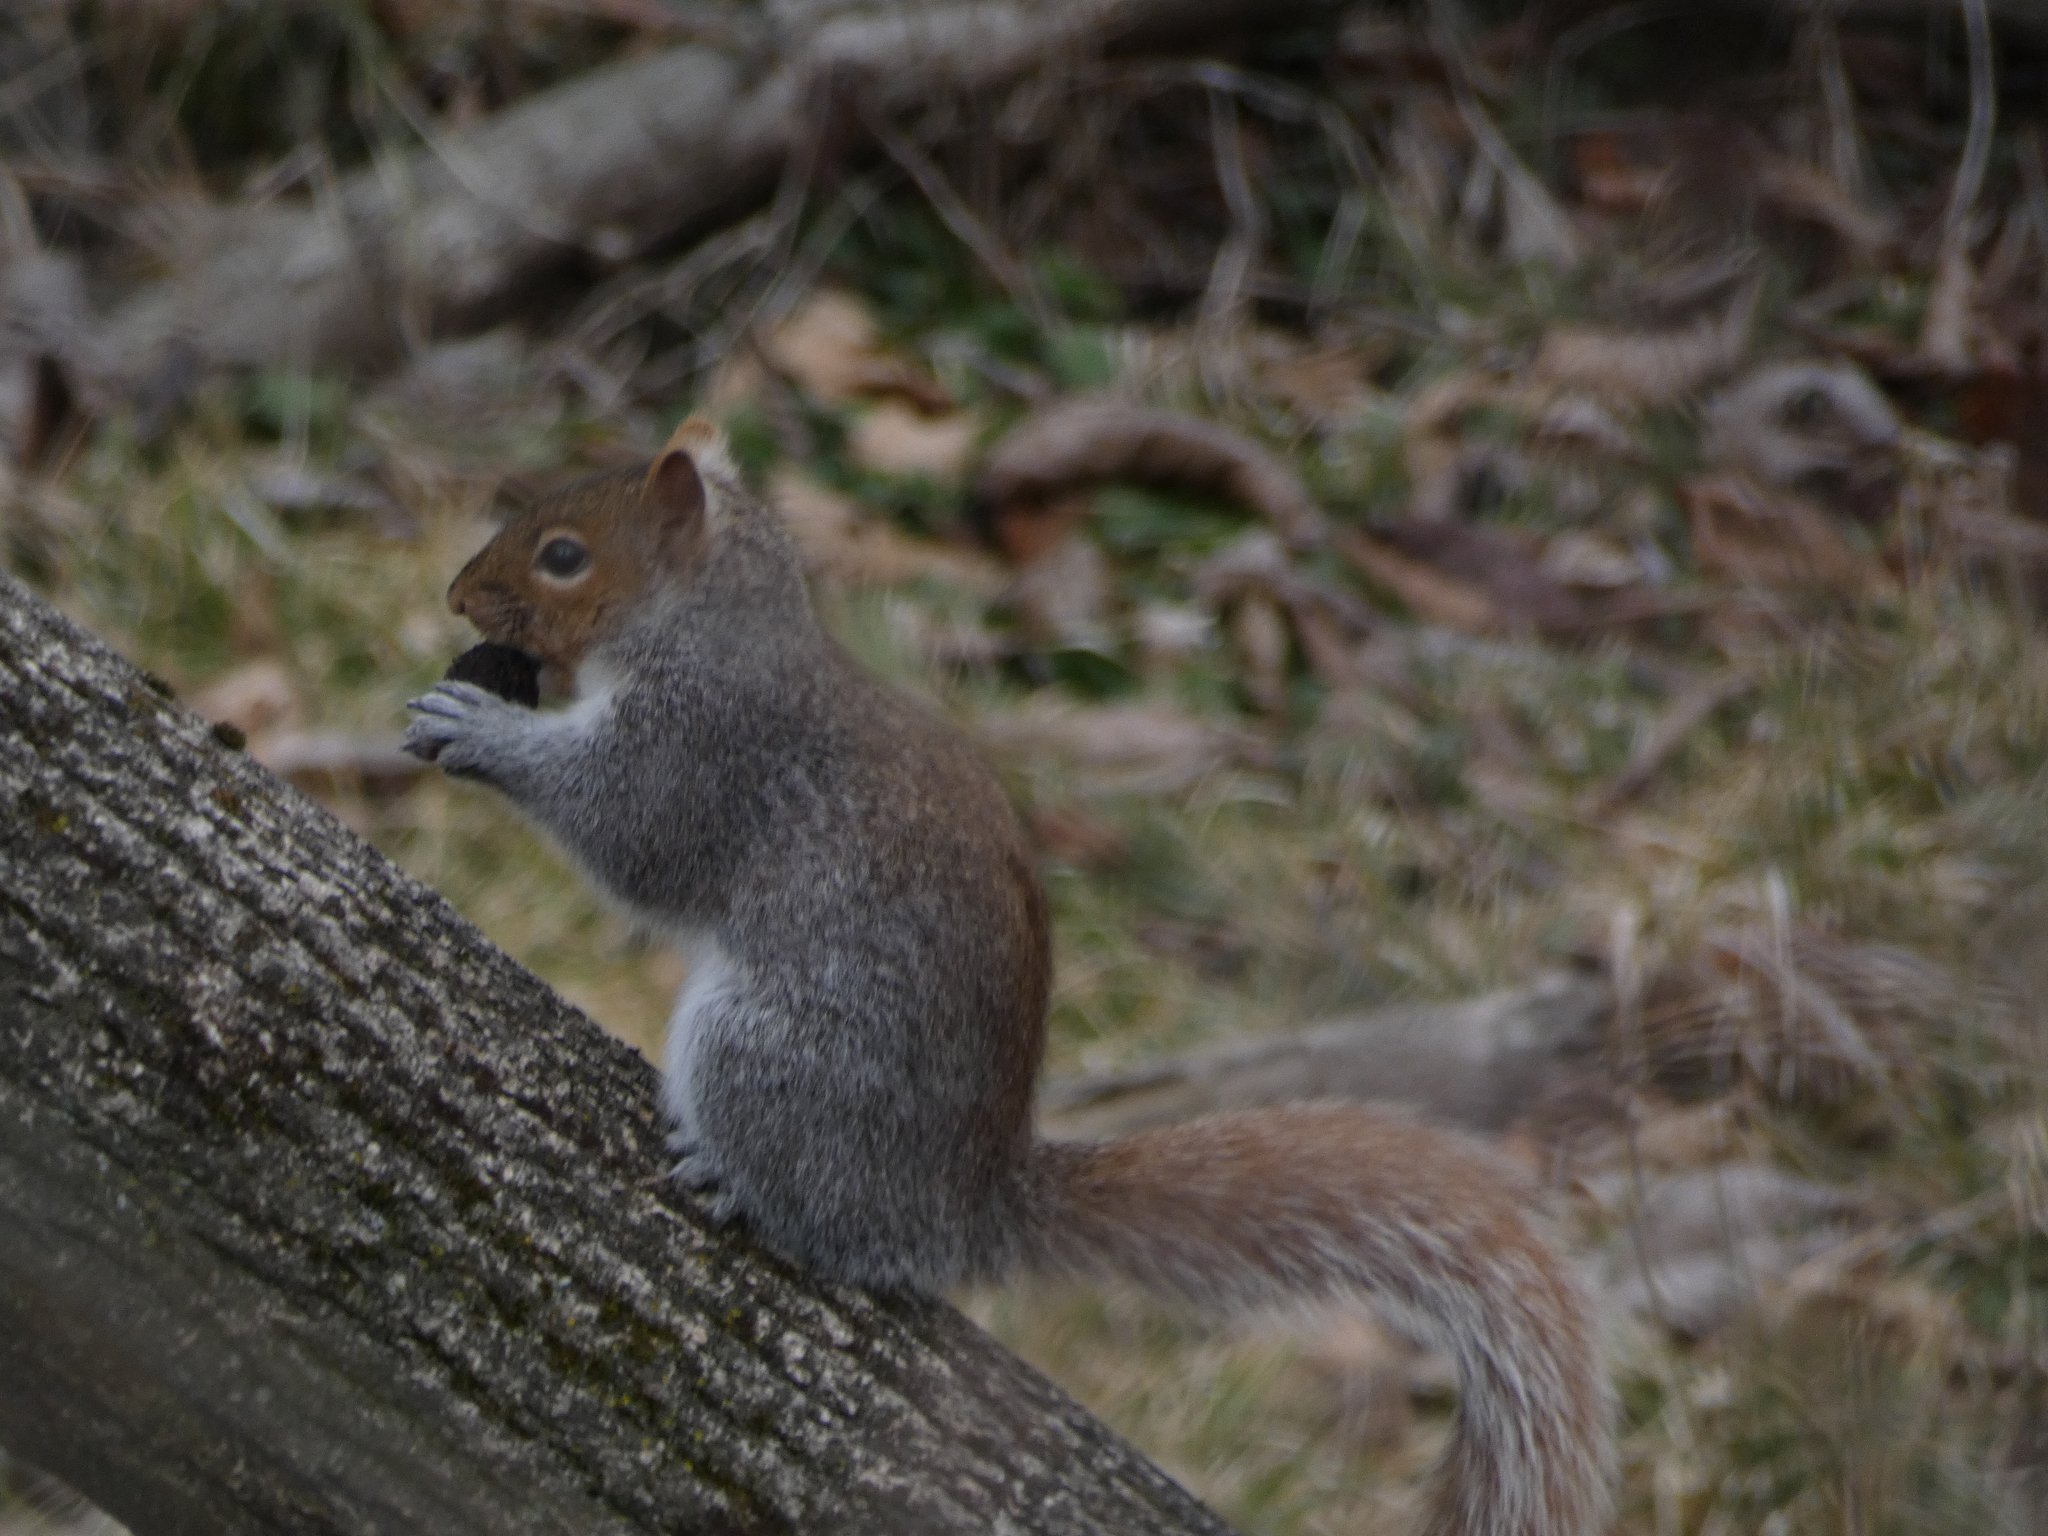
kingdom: Animalia
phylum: Chordata
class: Mammalia
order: Rodentia
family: Sciuridae
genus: Sciurus
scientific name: Sciurus carolinensis
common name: Eastern gray squirrel
